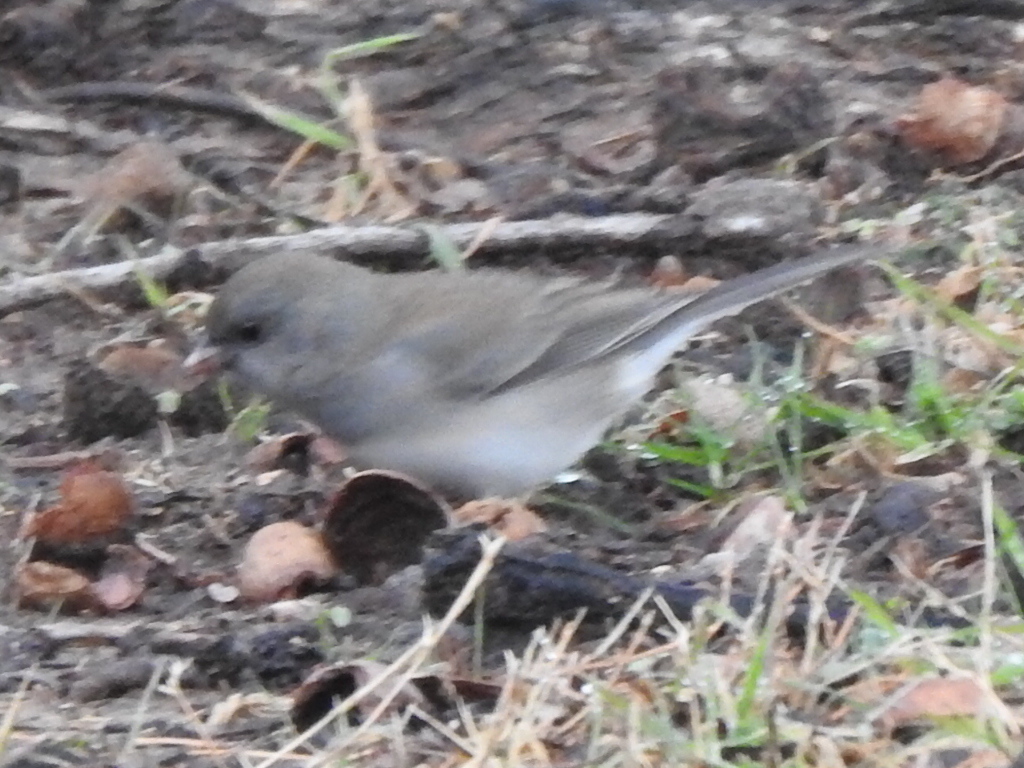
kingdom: Animalia
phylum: Chordata
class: Aves
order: Passeriformes
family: Passerellidae
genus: Junco
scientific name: Junco hyemalis
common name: Dark-eyed junco
